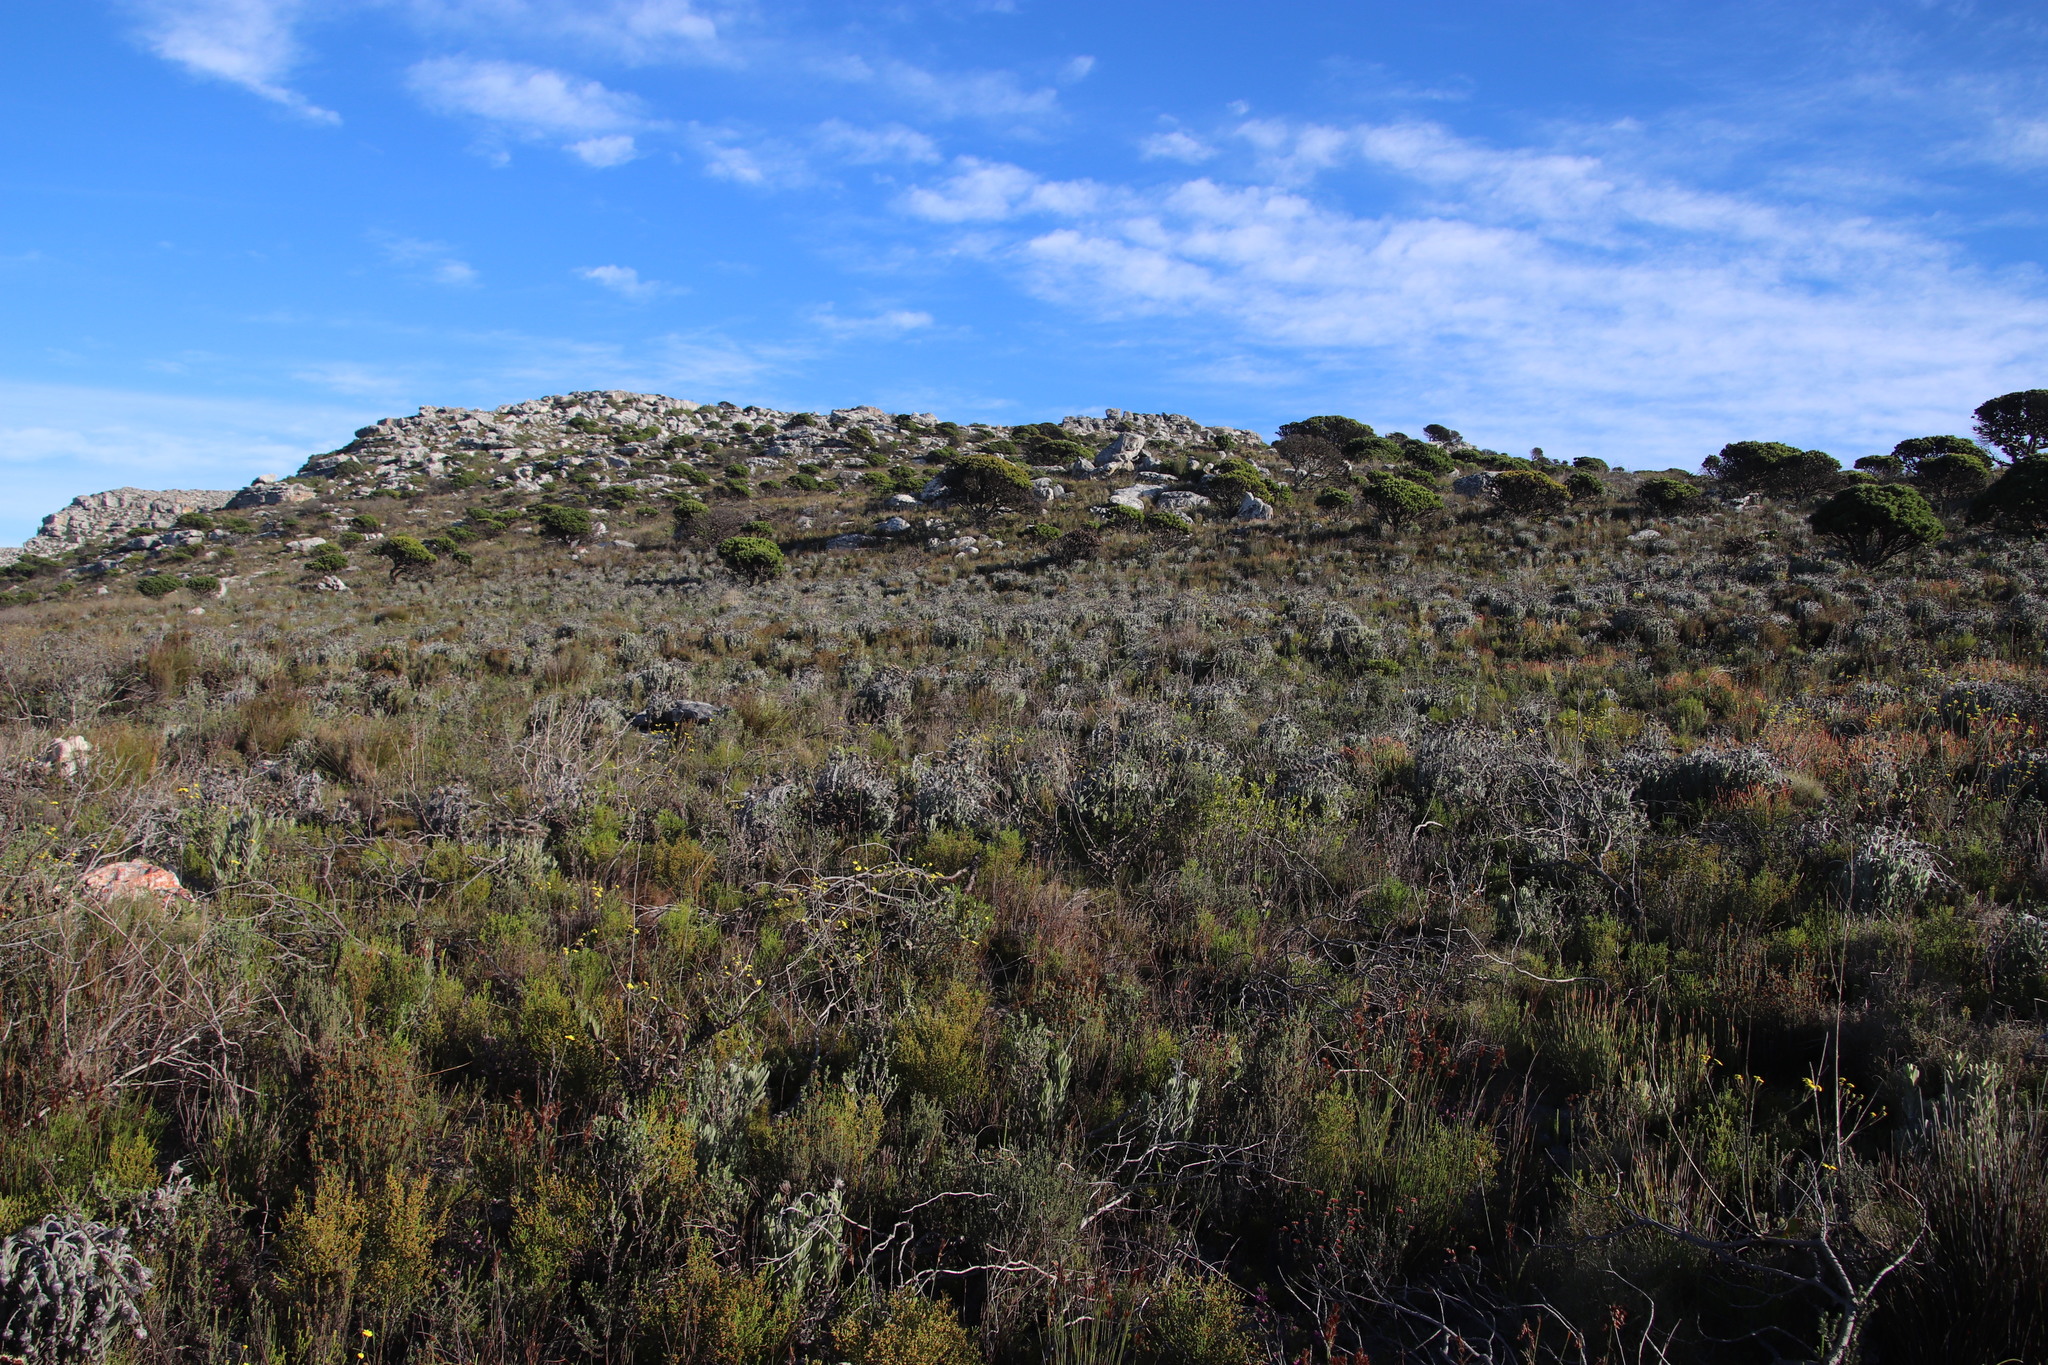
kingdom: Plantae
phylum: Tracheophyta
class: Magnoliopsida
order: Asterales
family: Asteraceae
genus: Syncarpha
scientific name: Syncarpha vestita
